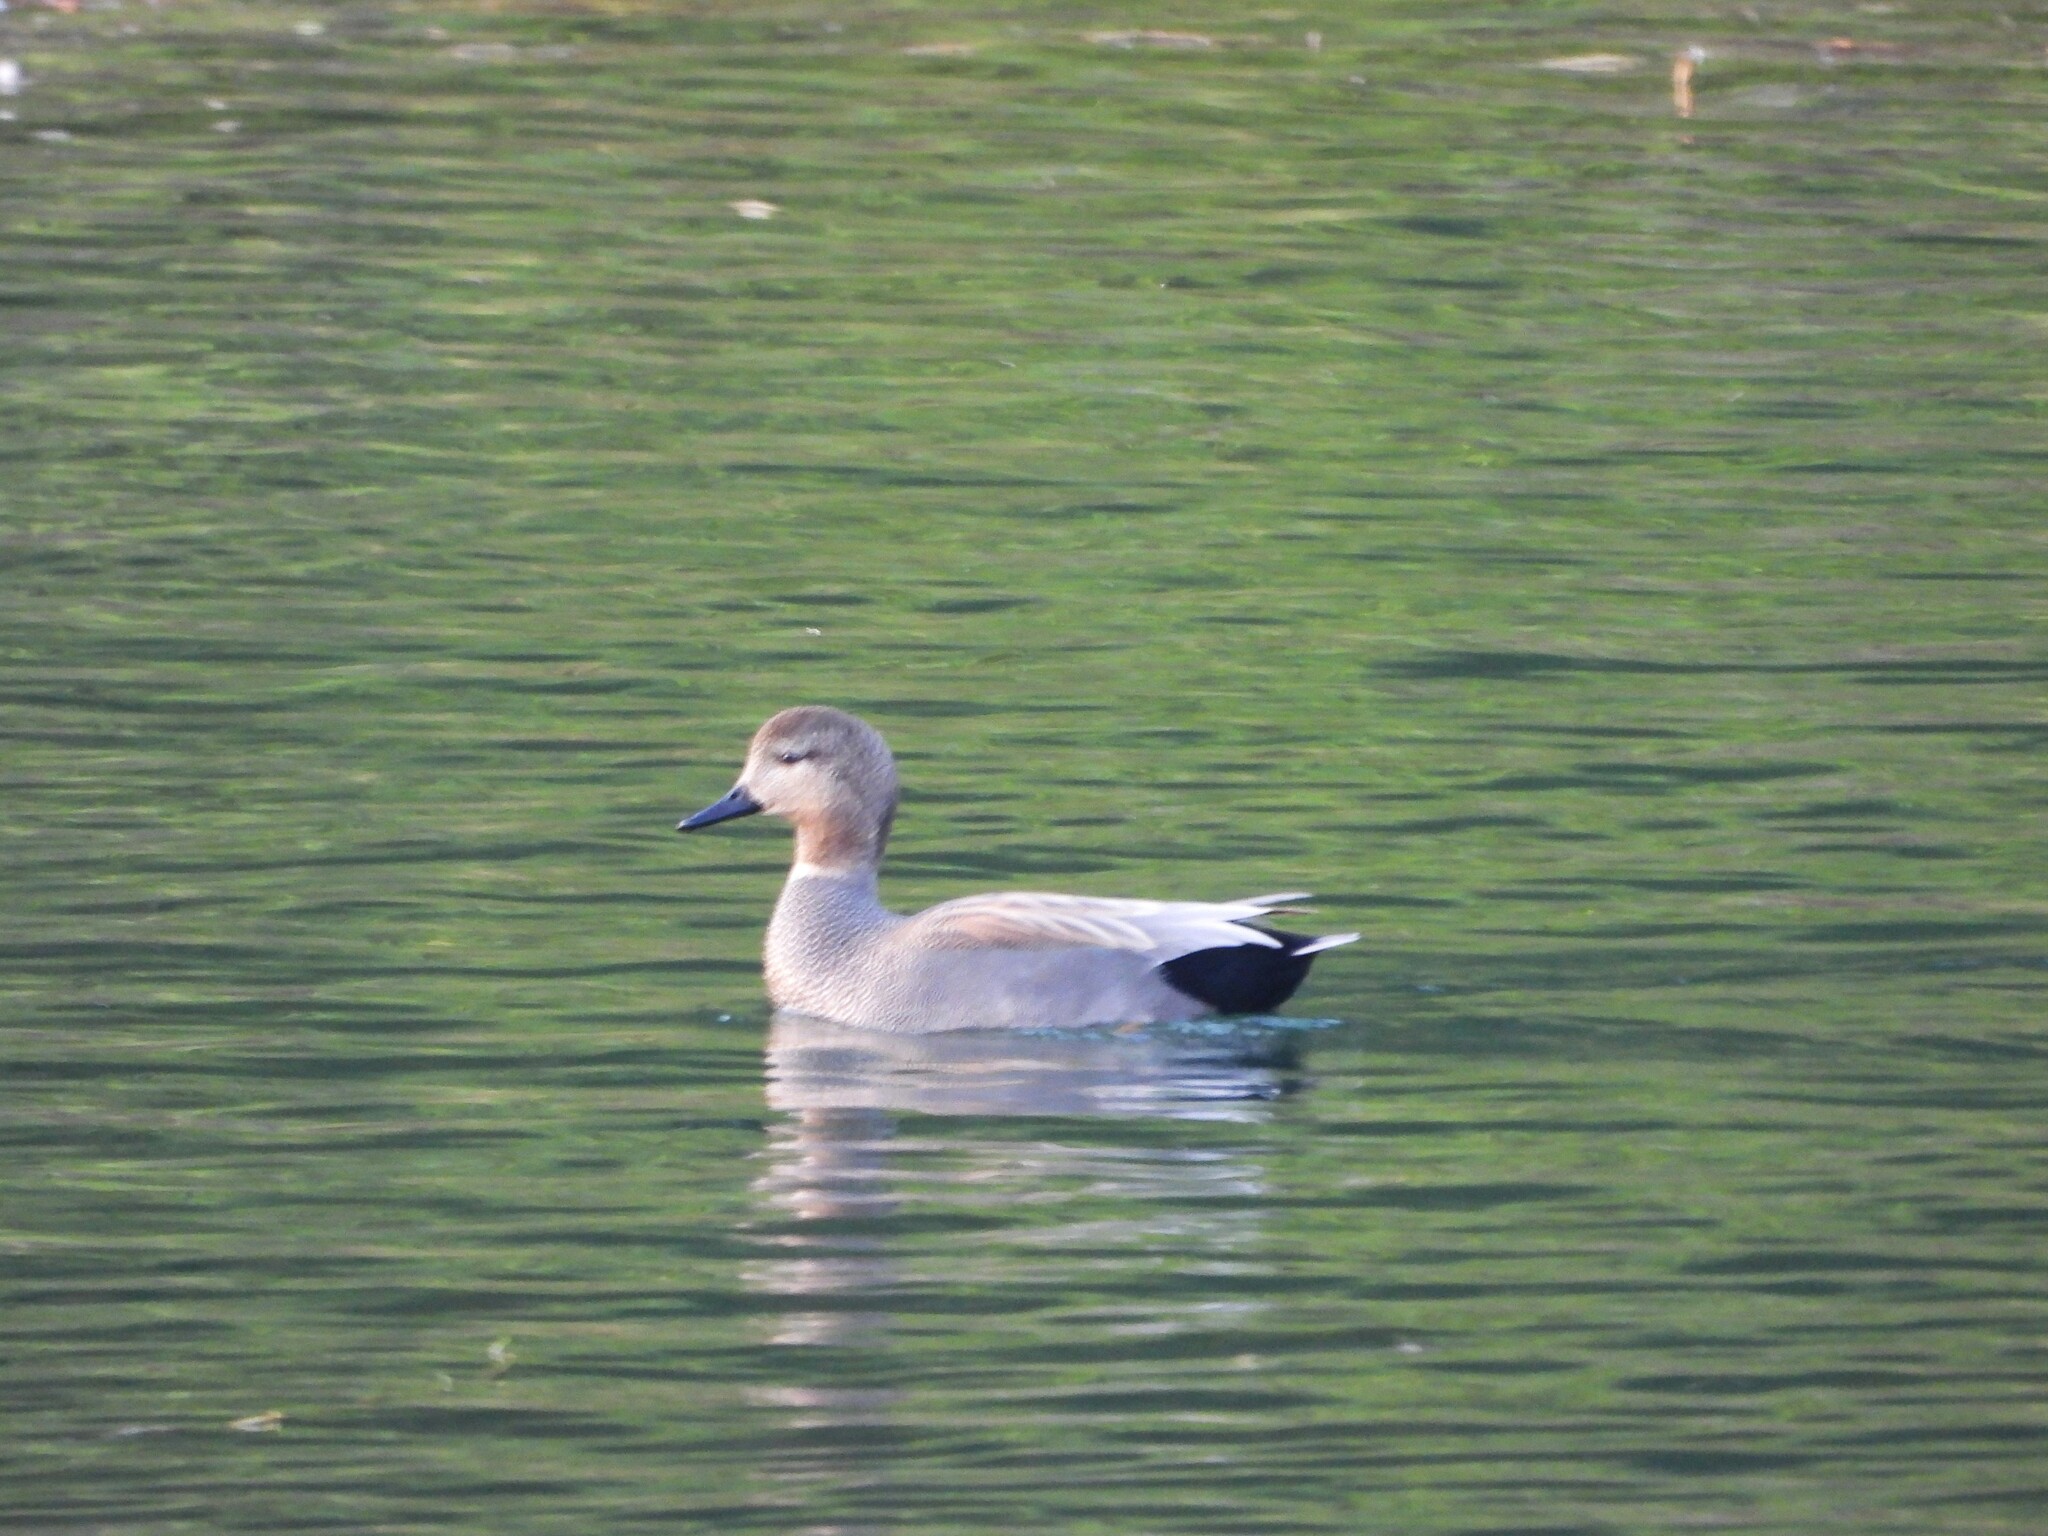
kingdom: Animalia
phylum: Chordata
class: Aves
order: Anseriformes
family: Anatidae
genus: Mareca
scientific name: Mareca strepera
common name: Gadwall
